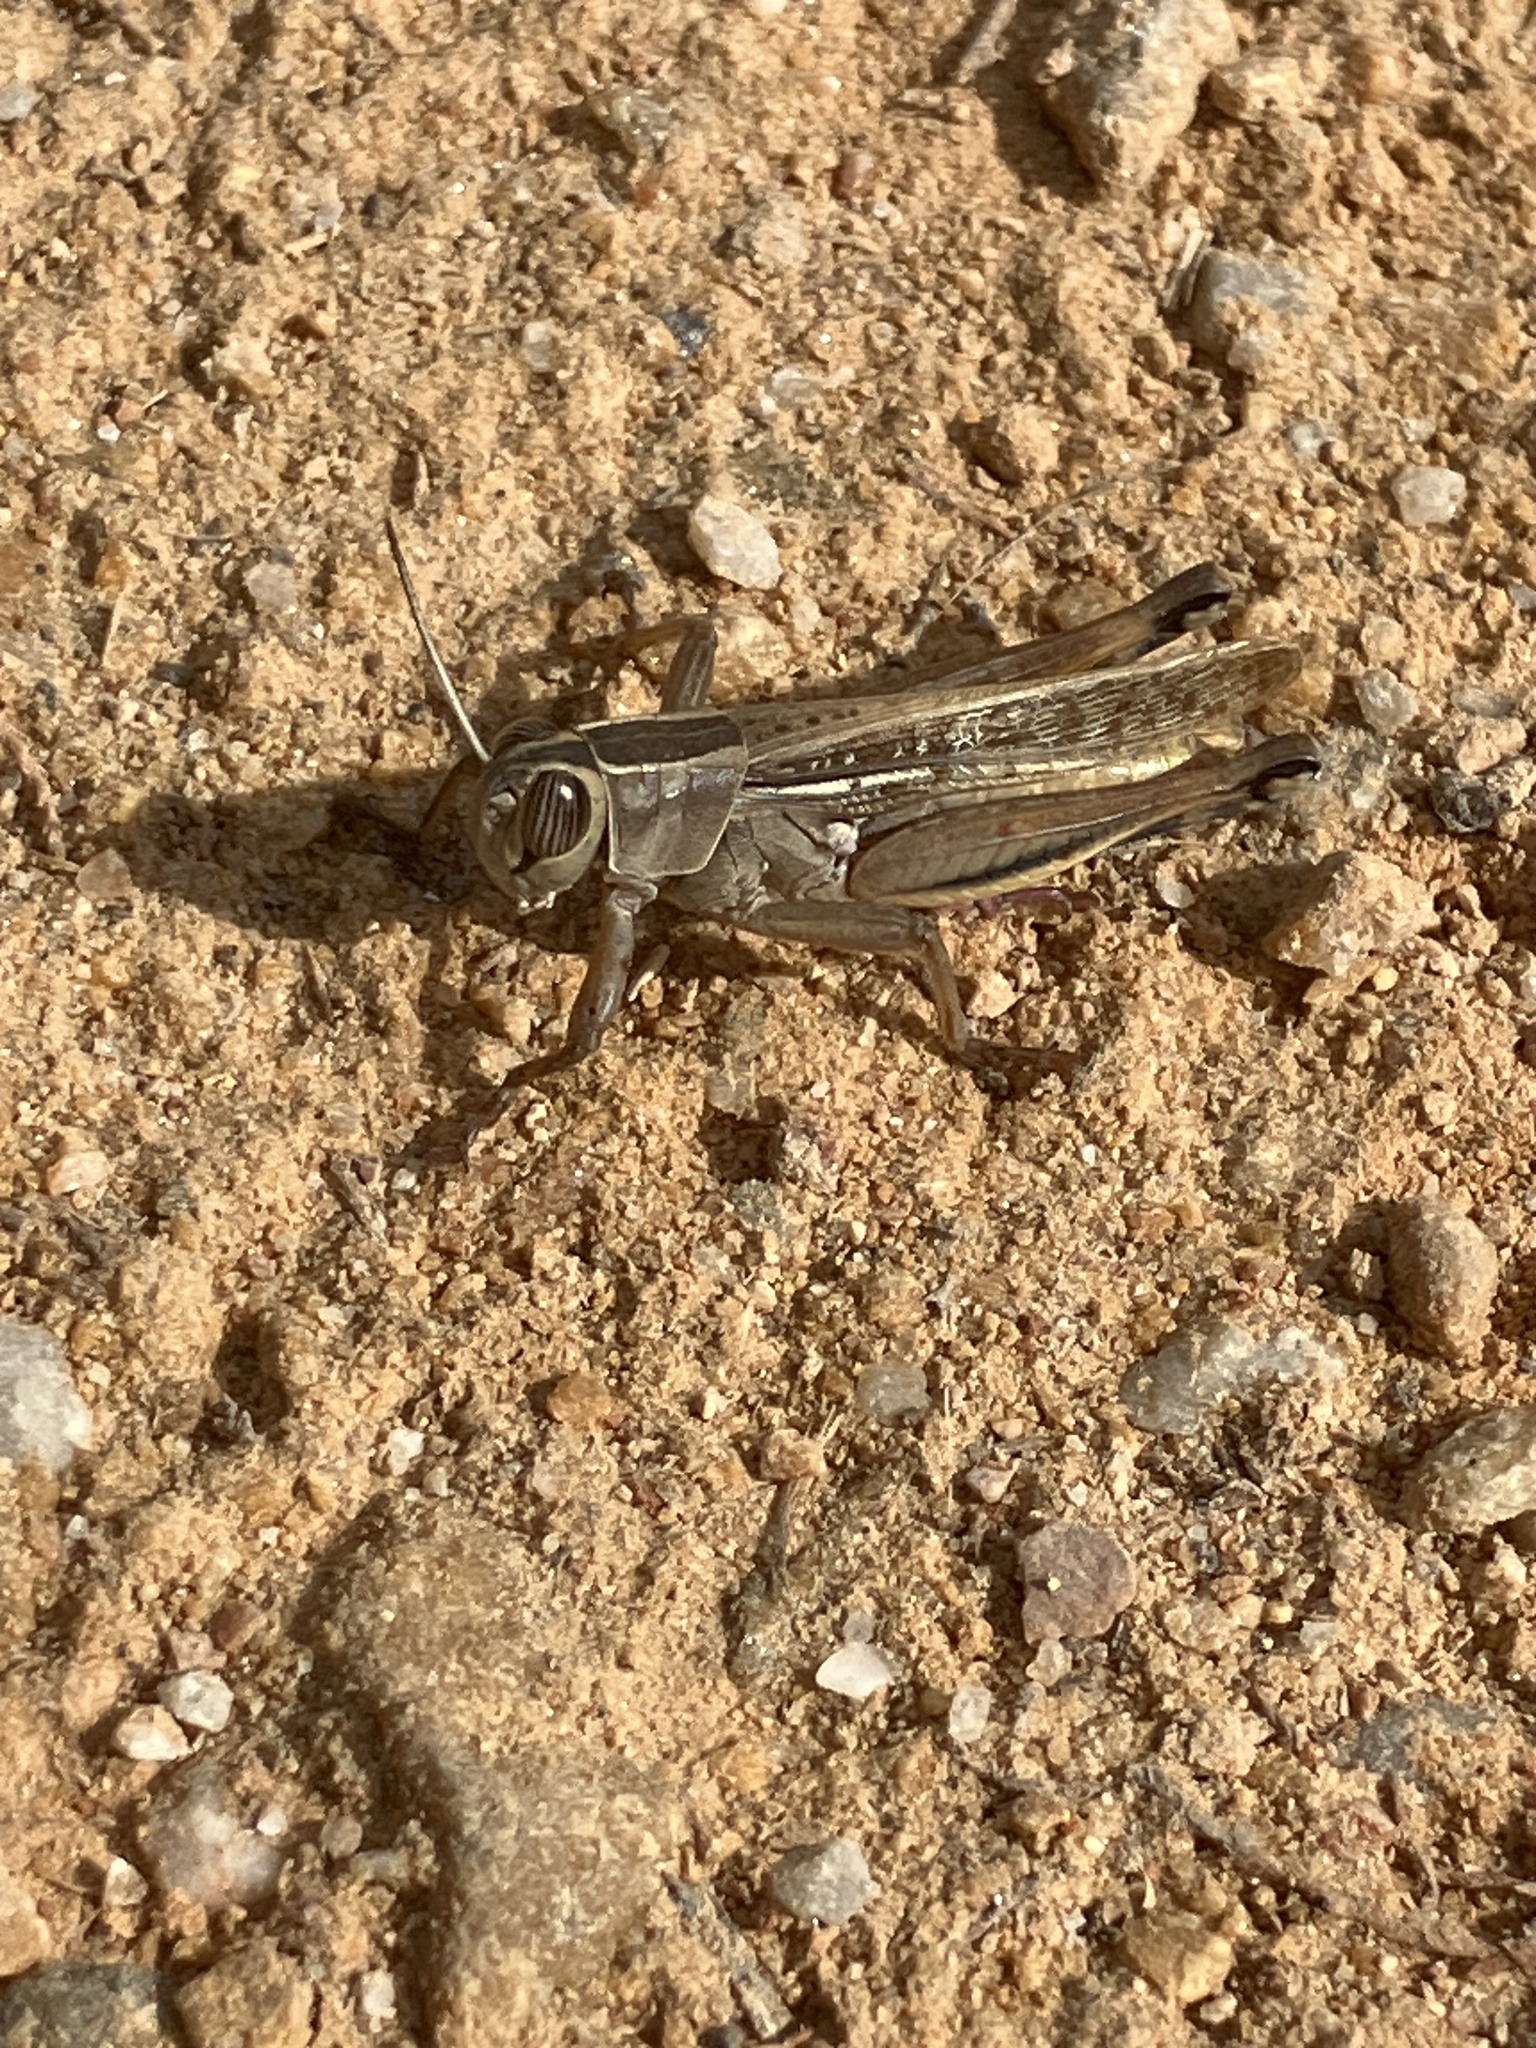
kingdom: Animalia
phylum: Arthropoda
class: Insecta
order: Orthoptera
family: Acrididae
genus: Eyprepocnemis
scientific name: Eyprepocnemis plorans
